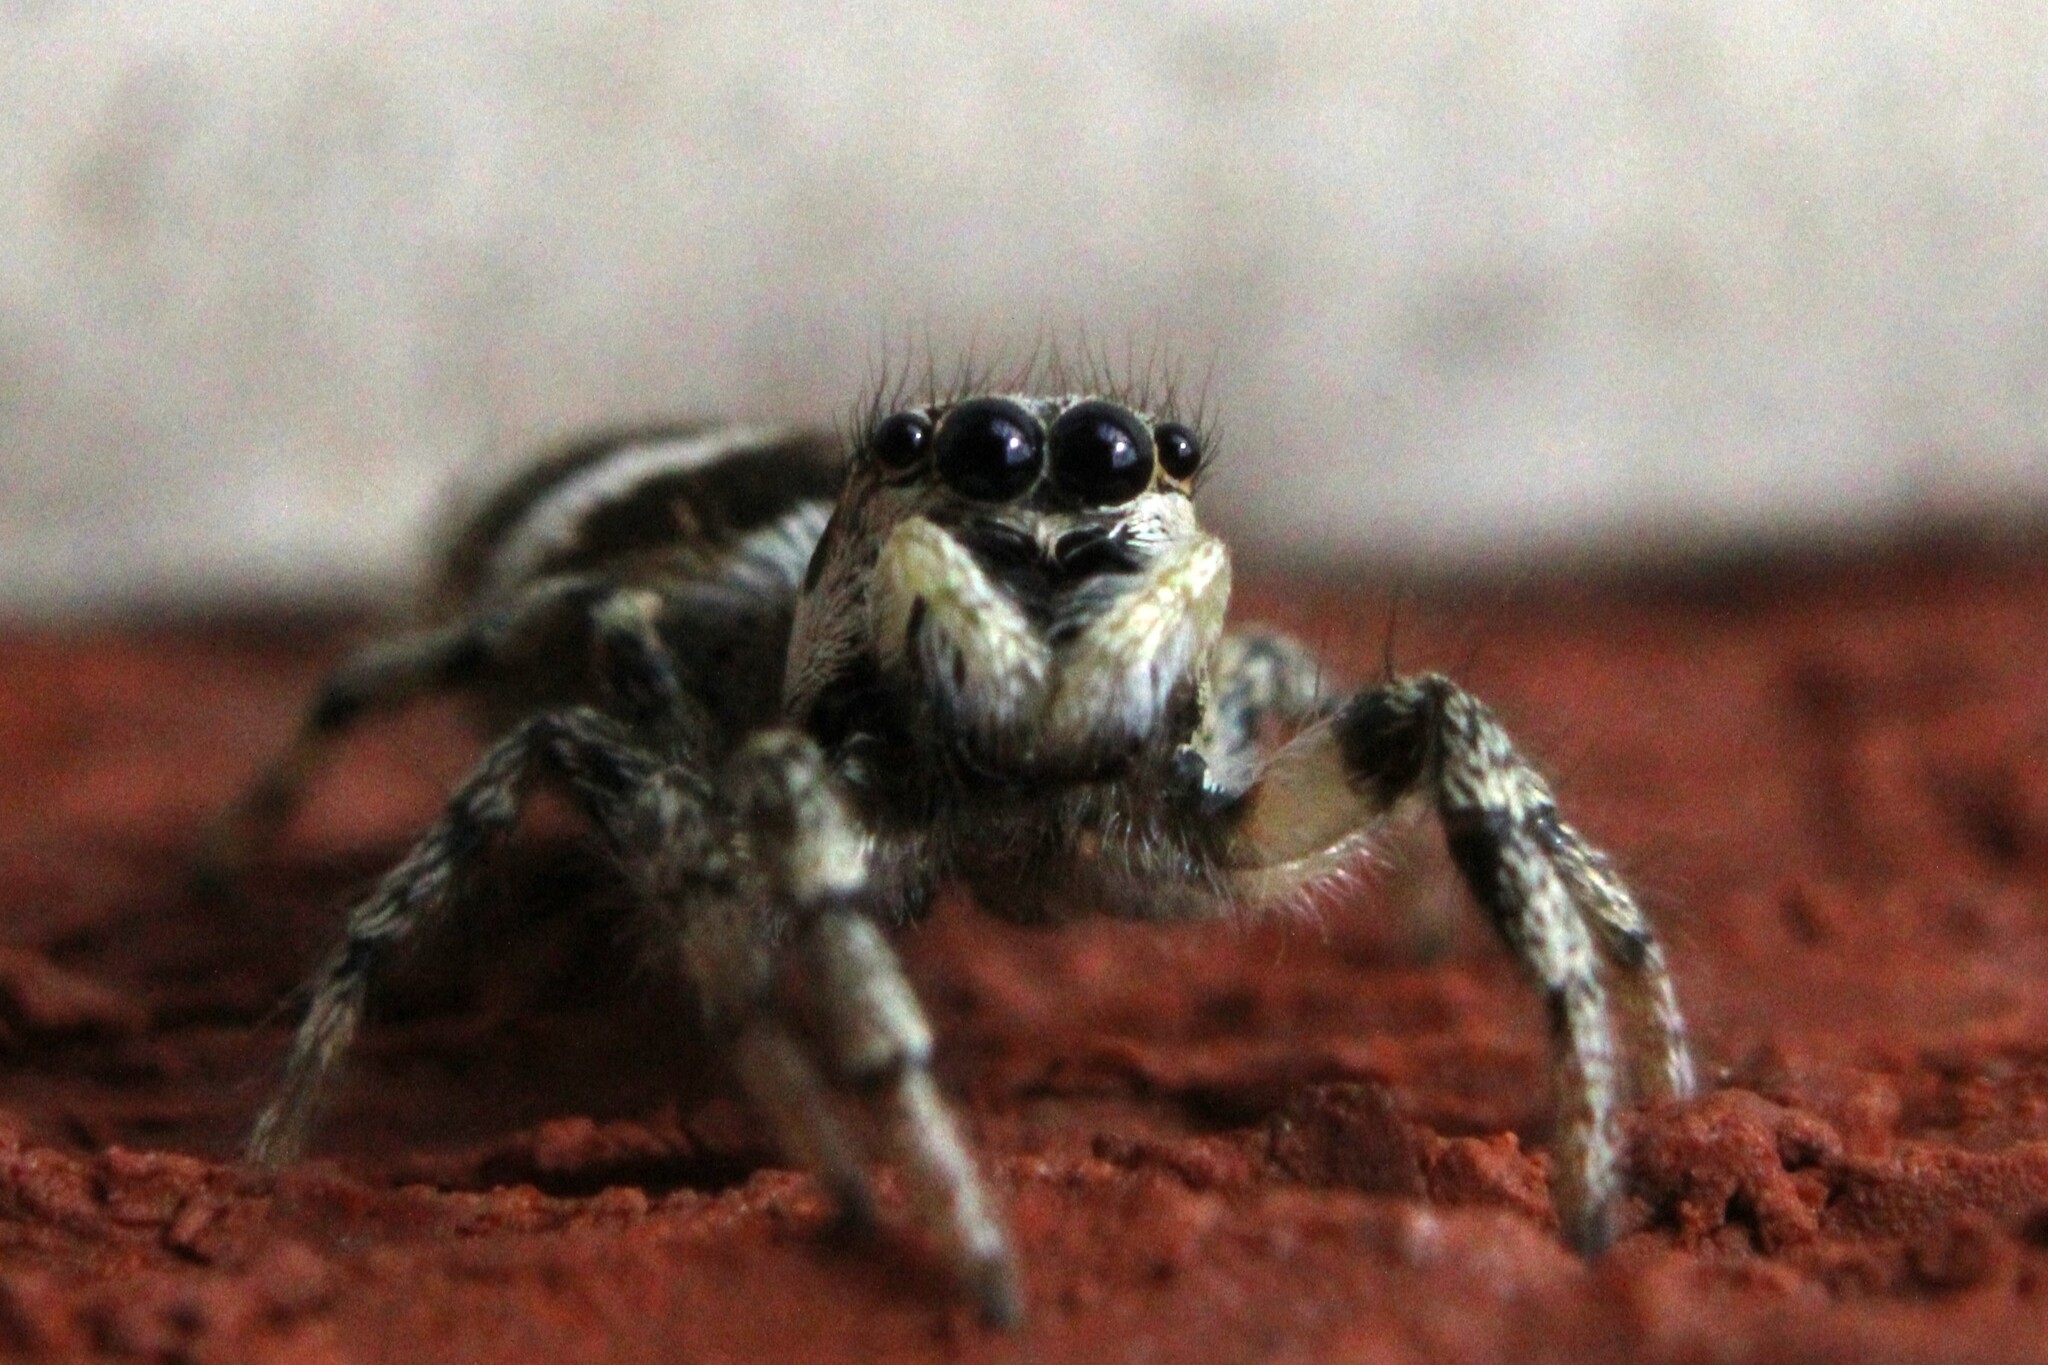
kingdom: Animalia
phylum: Arthropoda
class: Arachnida
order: Araneae
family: Salticidae
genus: Salticus
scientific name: Salticus scenicus
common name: Zebra jumper
